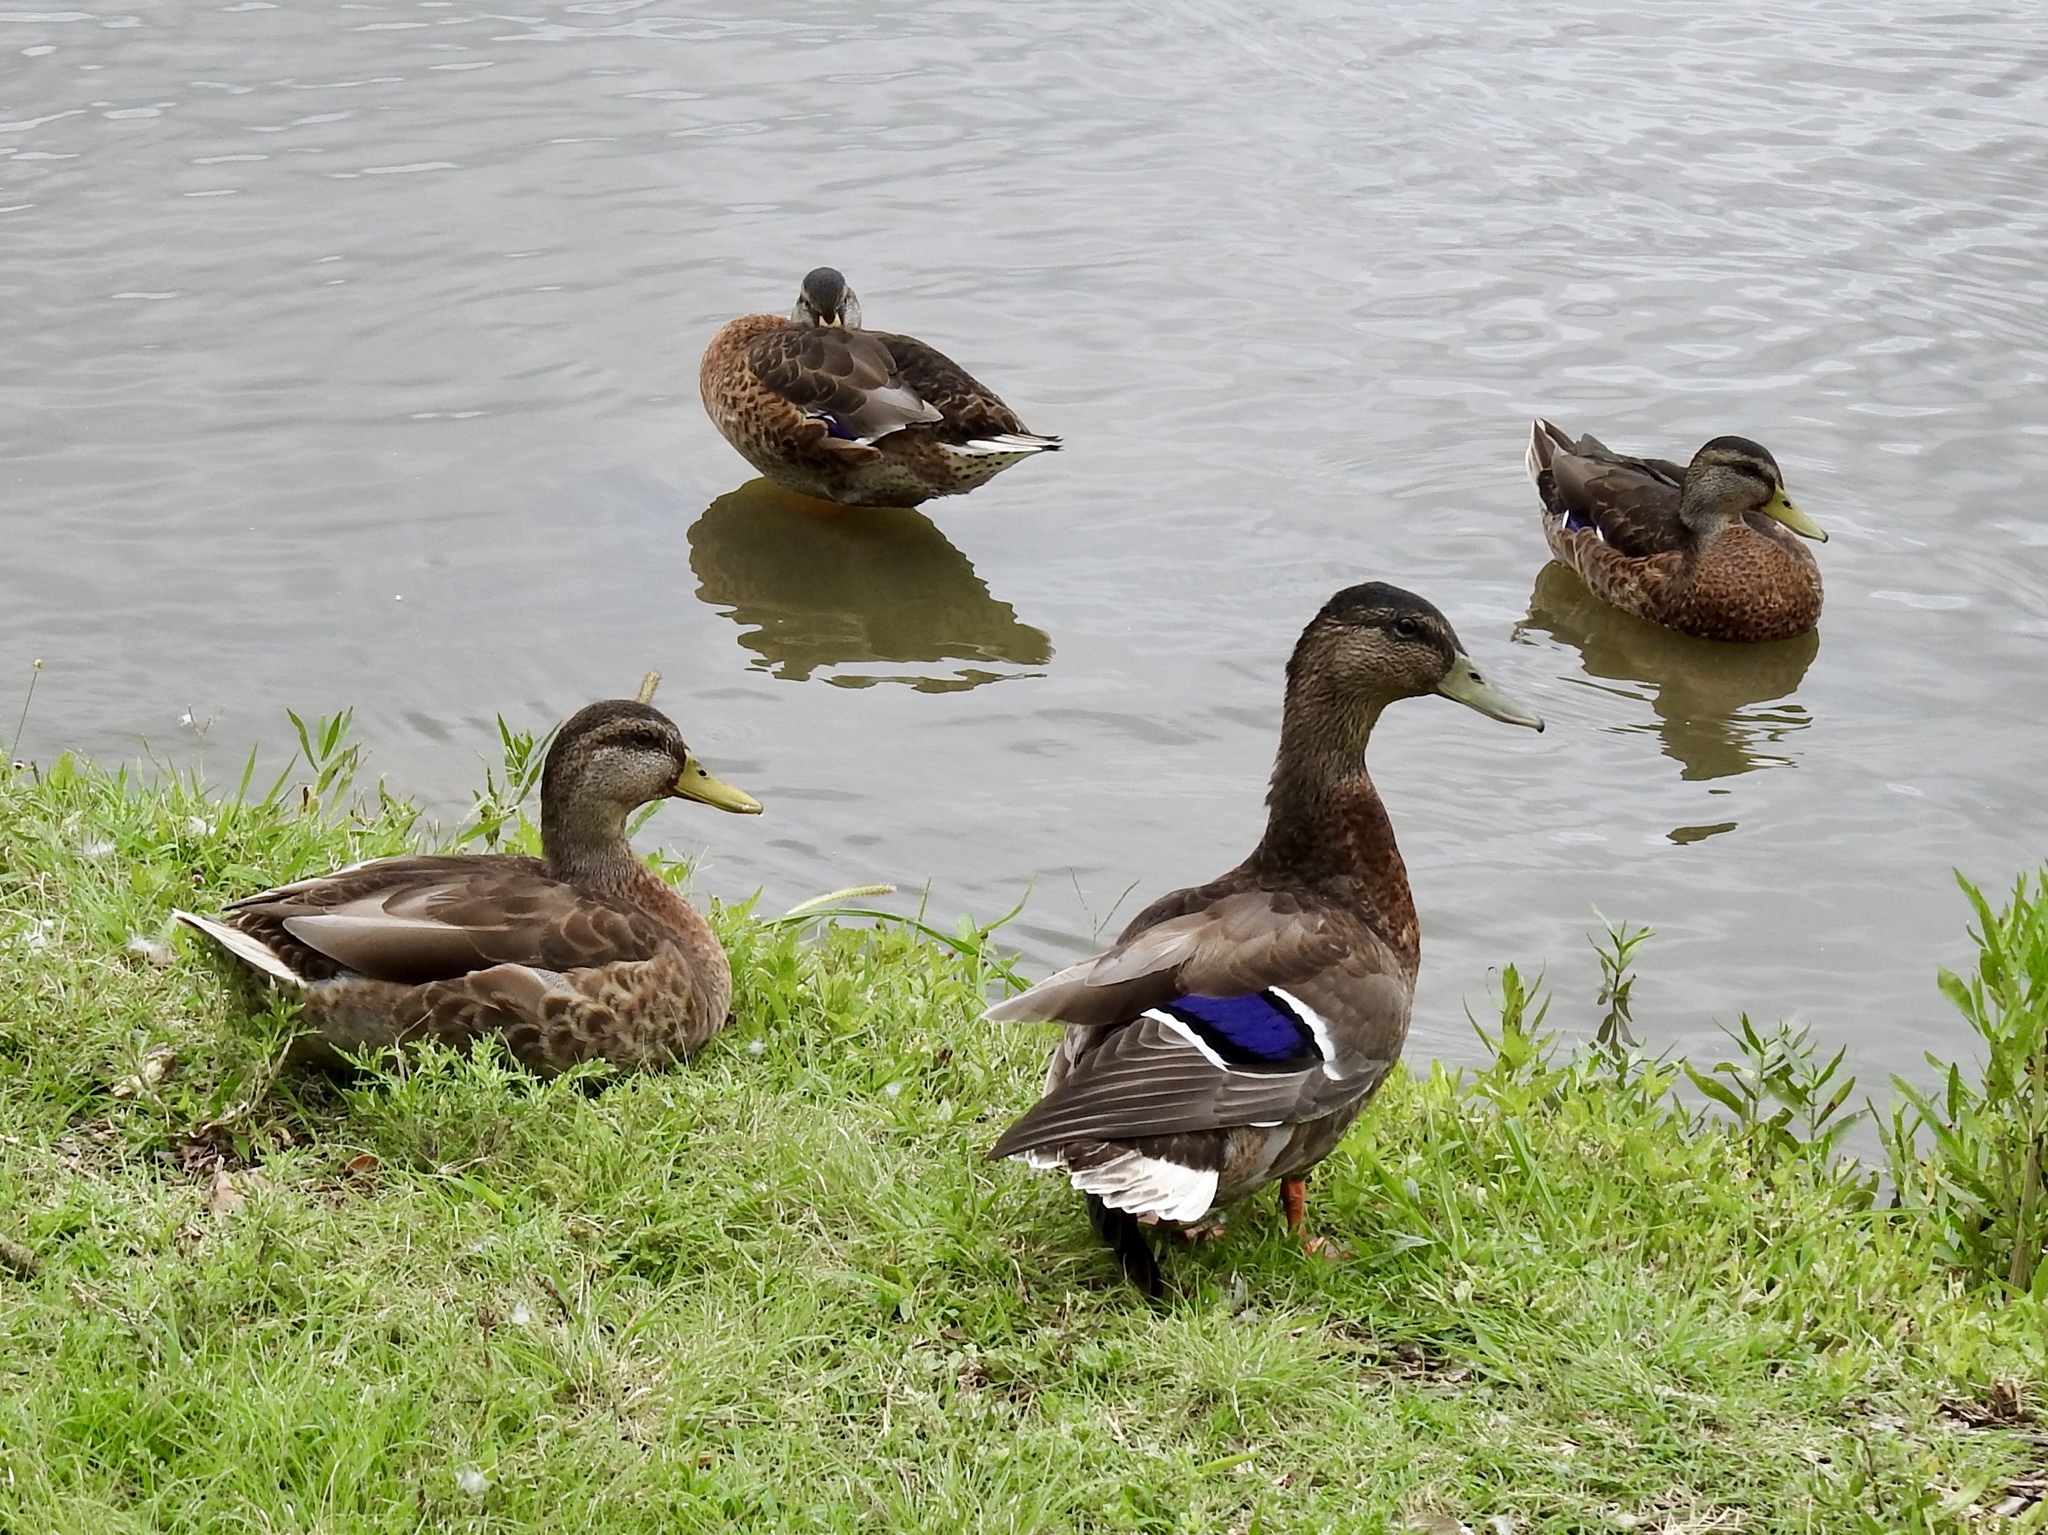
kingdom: Animalia
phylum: Chordata
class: Aves
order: Anseriformes
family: Anatidae
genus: Anas
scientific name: Anas platyrhynchos
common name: Mallard
